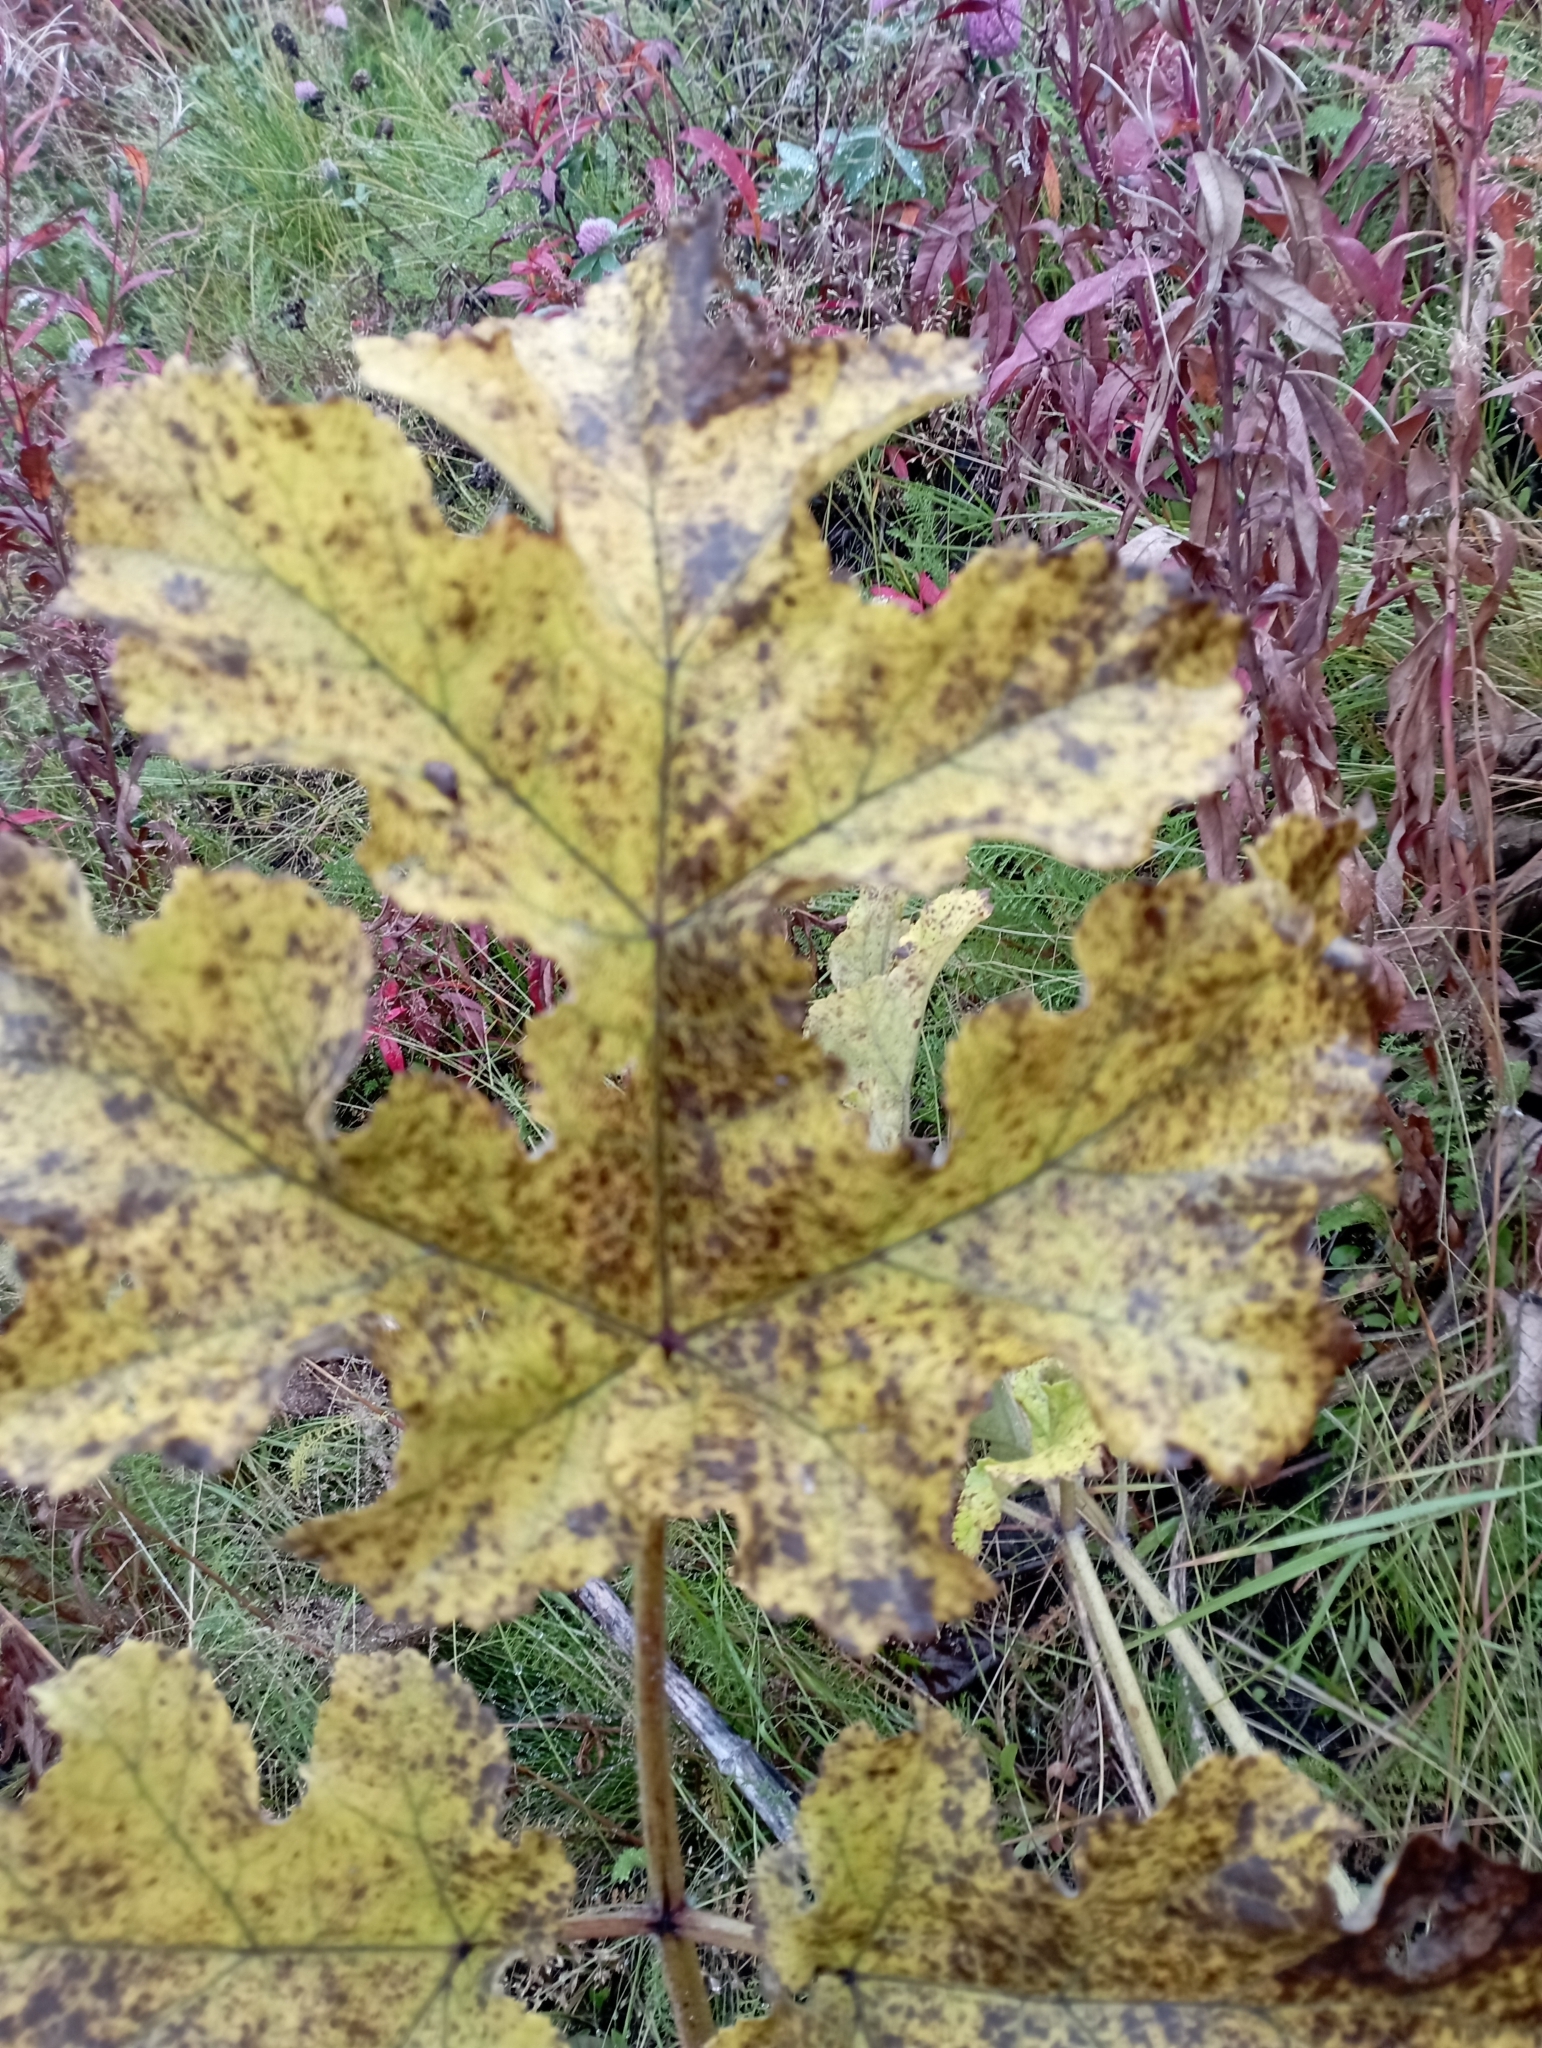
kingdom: Plantae
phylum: Tracheophyta
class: Magnoliopsida
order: Apiales
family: Apiaceae
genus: Heracleum
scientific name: Heracleum sosnowskyi
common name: Sosnowsky's hogweed
